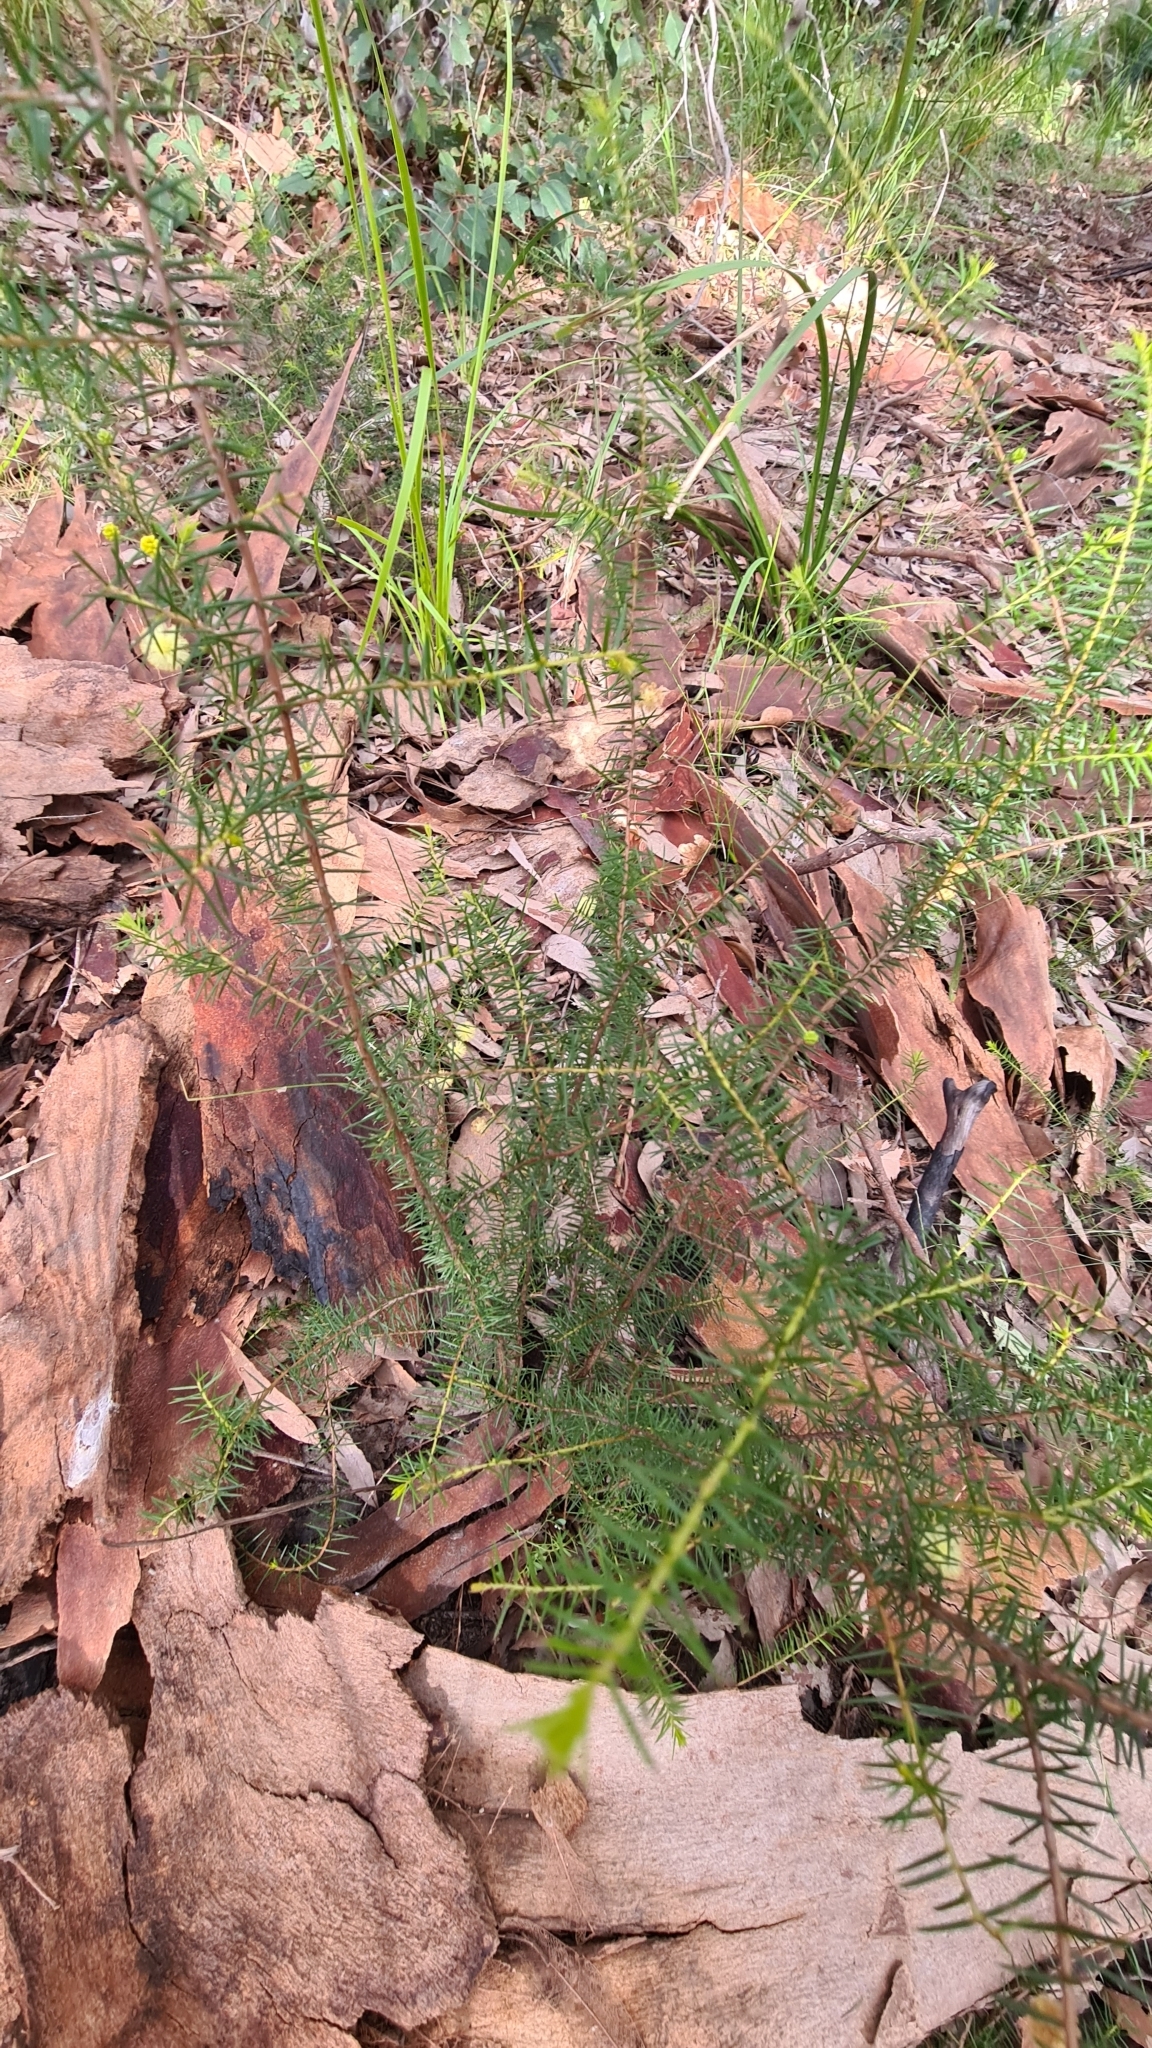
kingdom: Plantae
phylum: Tracheophyta
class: Magnoliopsida
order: Fabales
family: Fabaceae
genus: Acacia
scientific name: Acacia brownii
